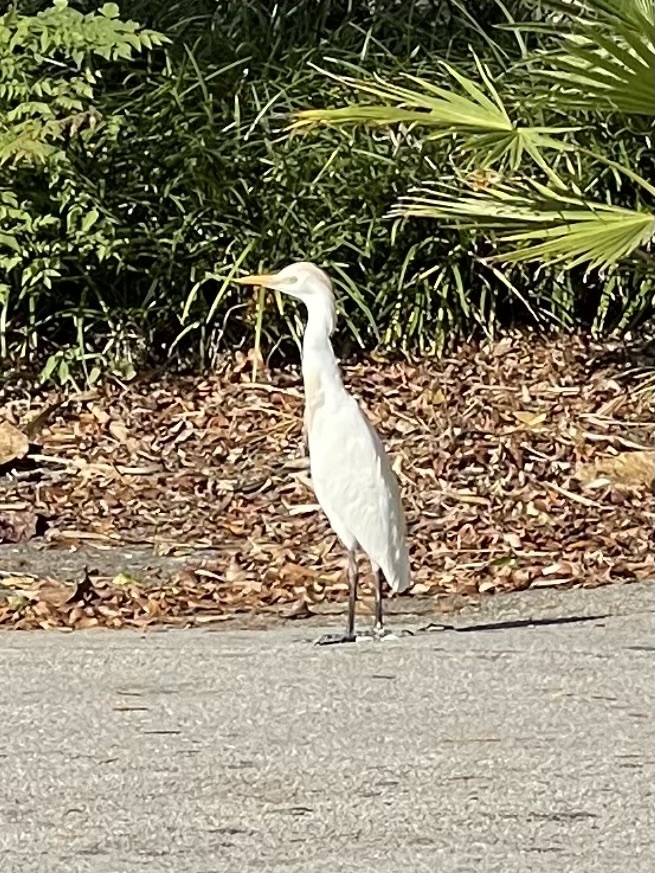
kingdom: Animalia
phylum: Chordata
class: Aves
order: Pelecaniformes
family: Ardeidae
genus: Bubulcus
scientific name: Bubulcus ibis
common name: Cattle egret
